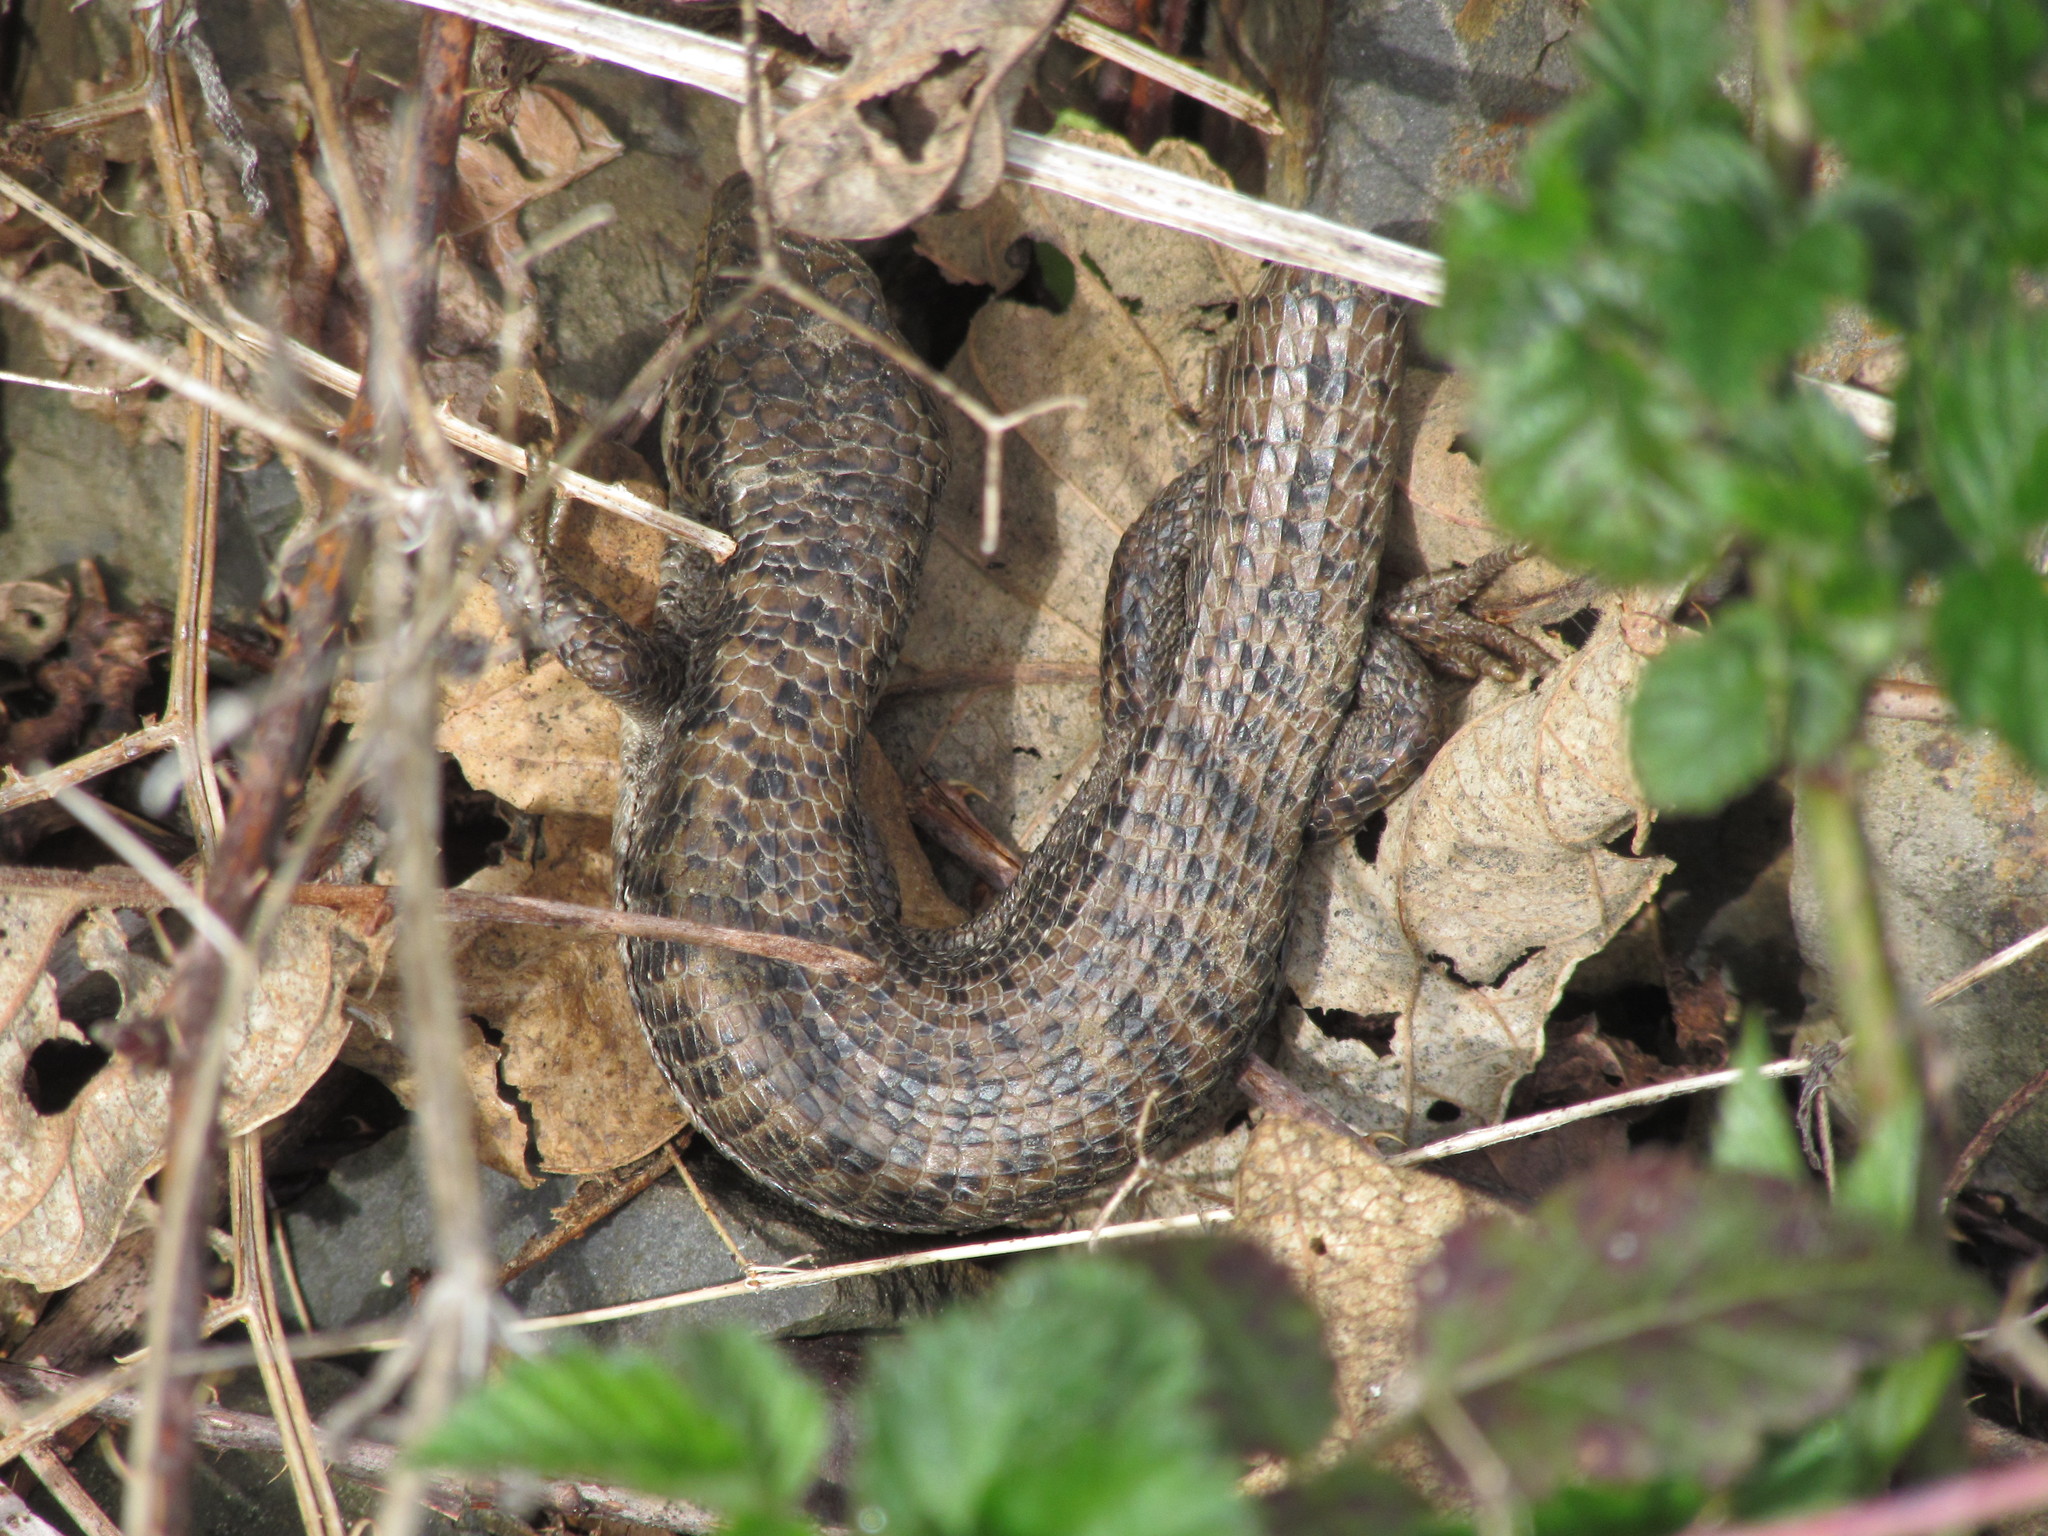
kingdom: Animalia
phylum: Chordata
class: Squamata
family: Anguidae
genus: Elgaria
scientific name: Elgaria coerulea
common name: Northern alligator lizard
